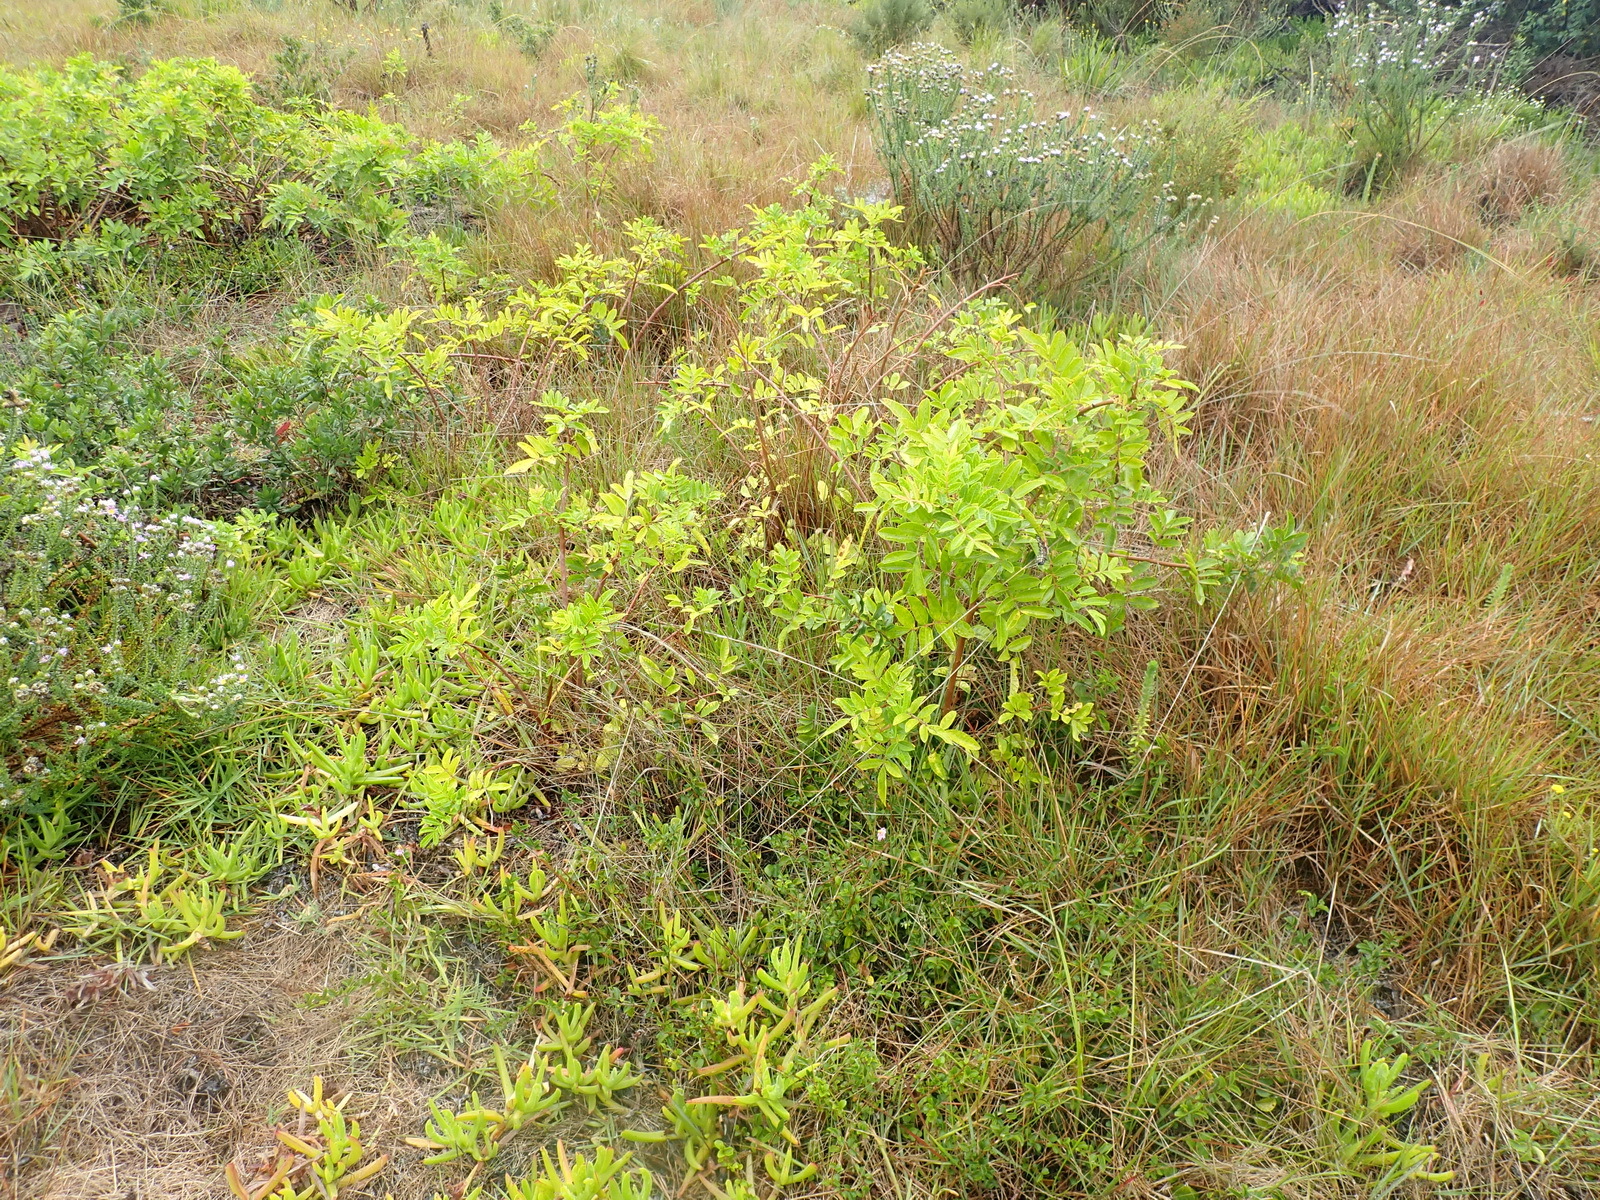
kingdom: Plantae
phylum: Tracheophyta
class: Magnoliopsida
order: Sapindales
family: Anacardiaceae
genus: Schinus
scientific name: Schinus terebinthifolia
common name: Brazilian peppertree
